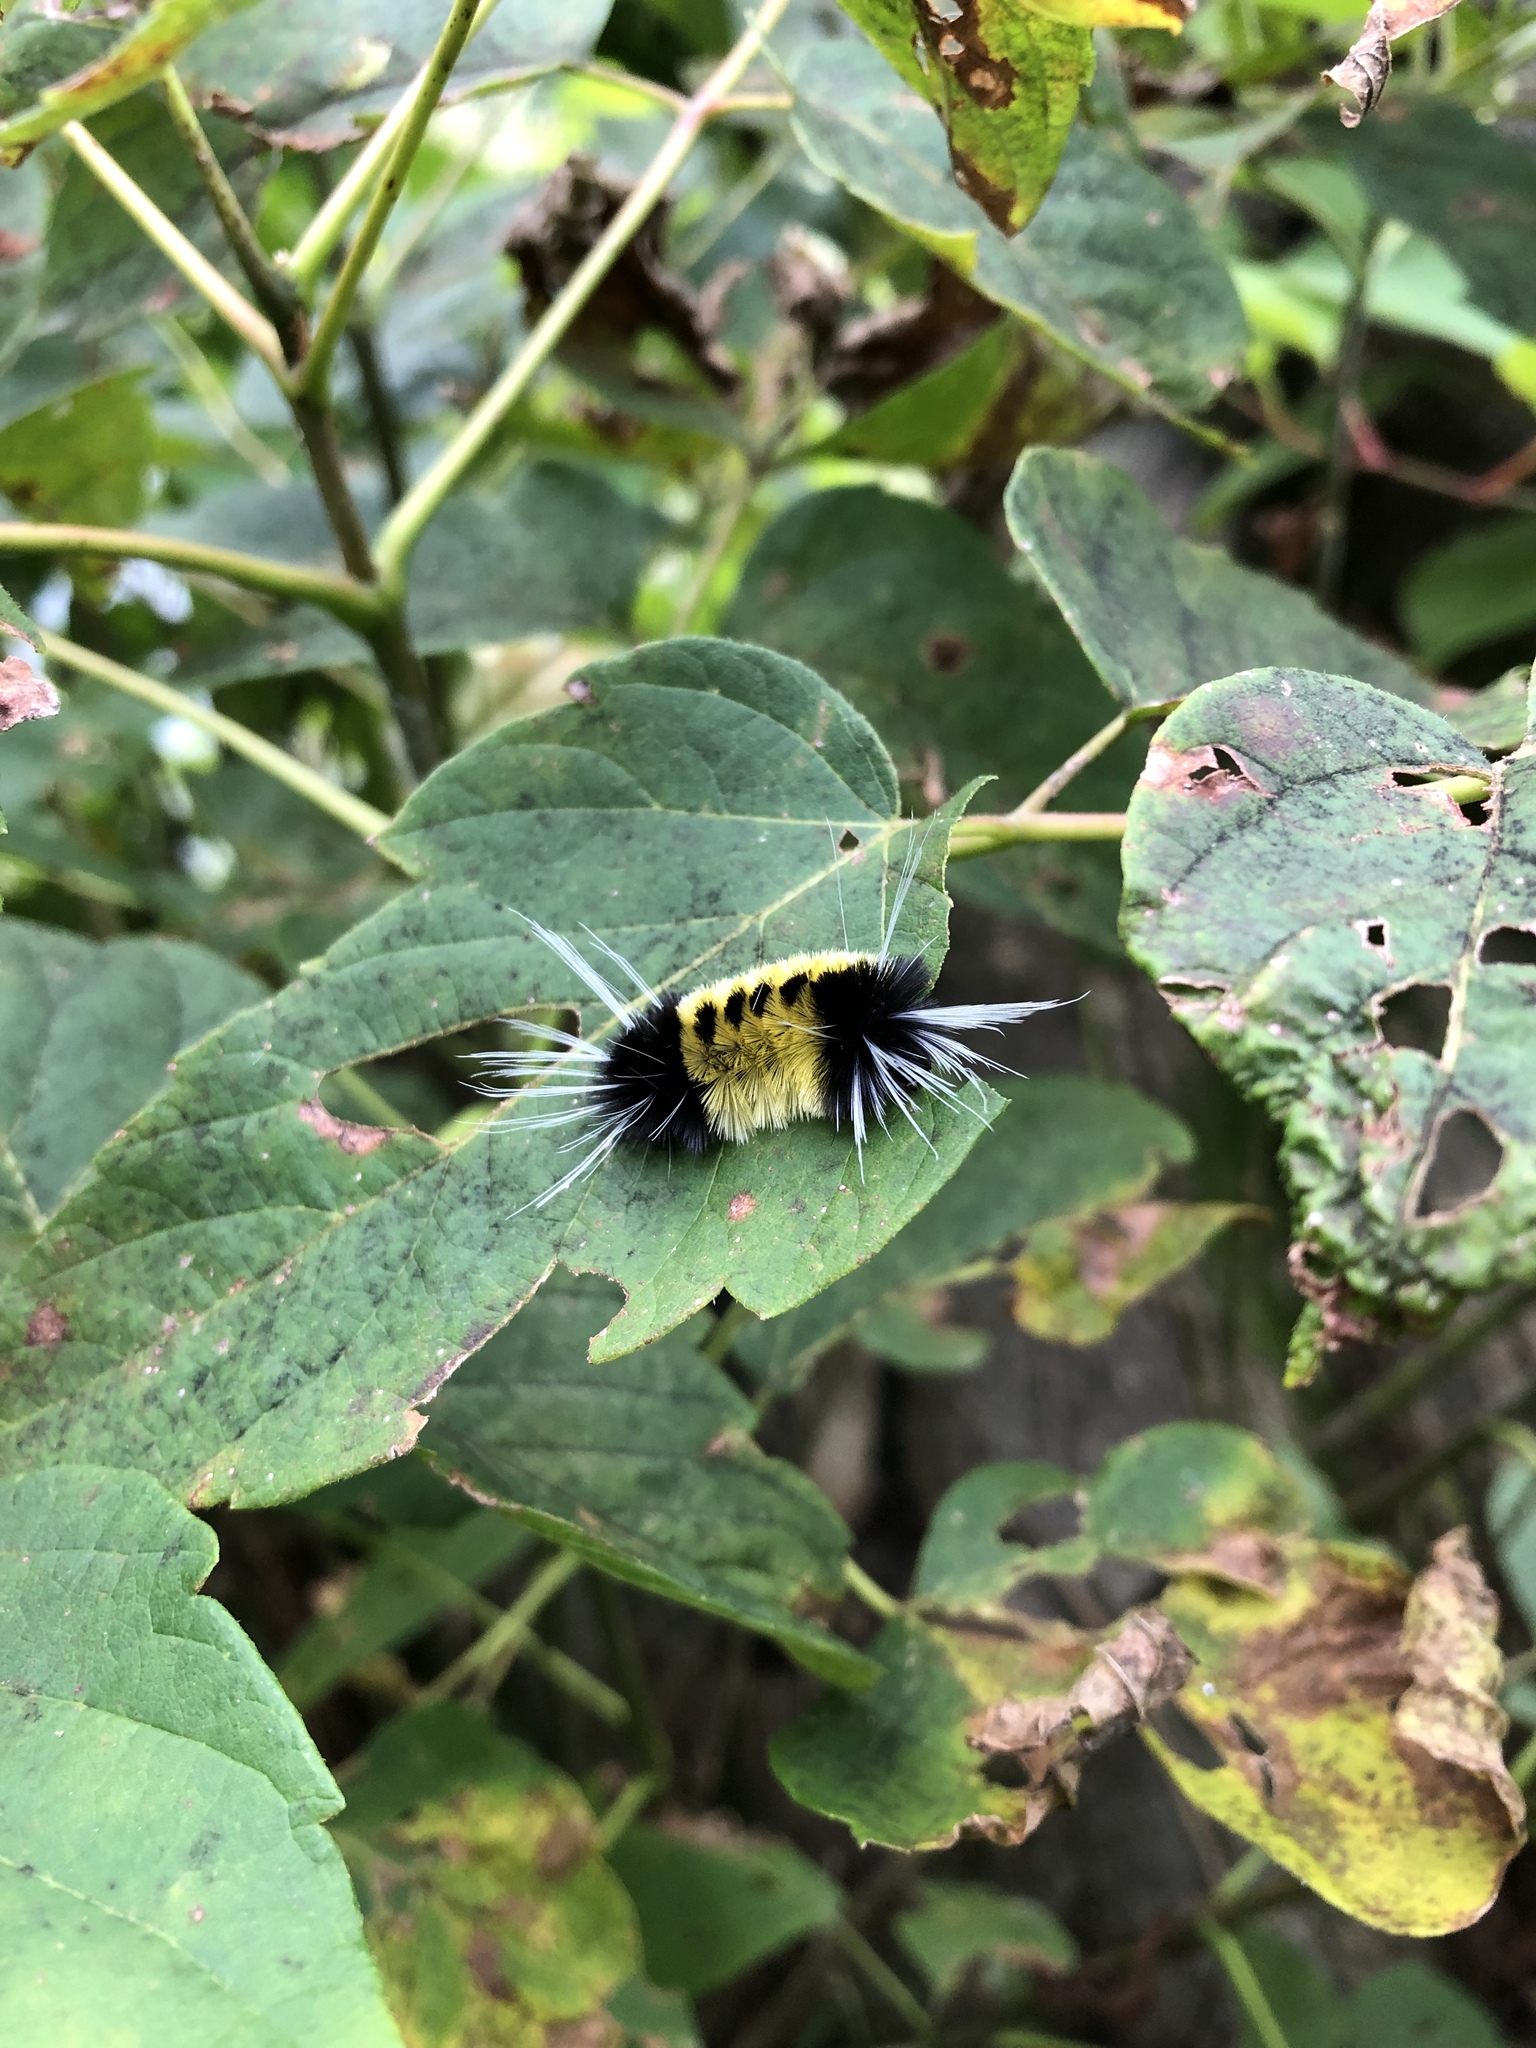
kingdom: Animalia
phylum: Arthropoda
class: Insecta
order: Lepidoptera
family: Erebidae
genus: Lophocampa
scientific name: Lophocampa maculata
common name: Spotted tussock moth
